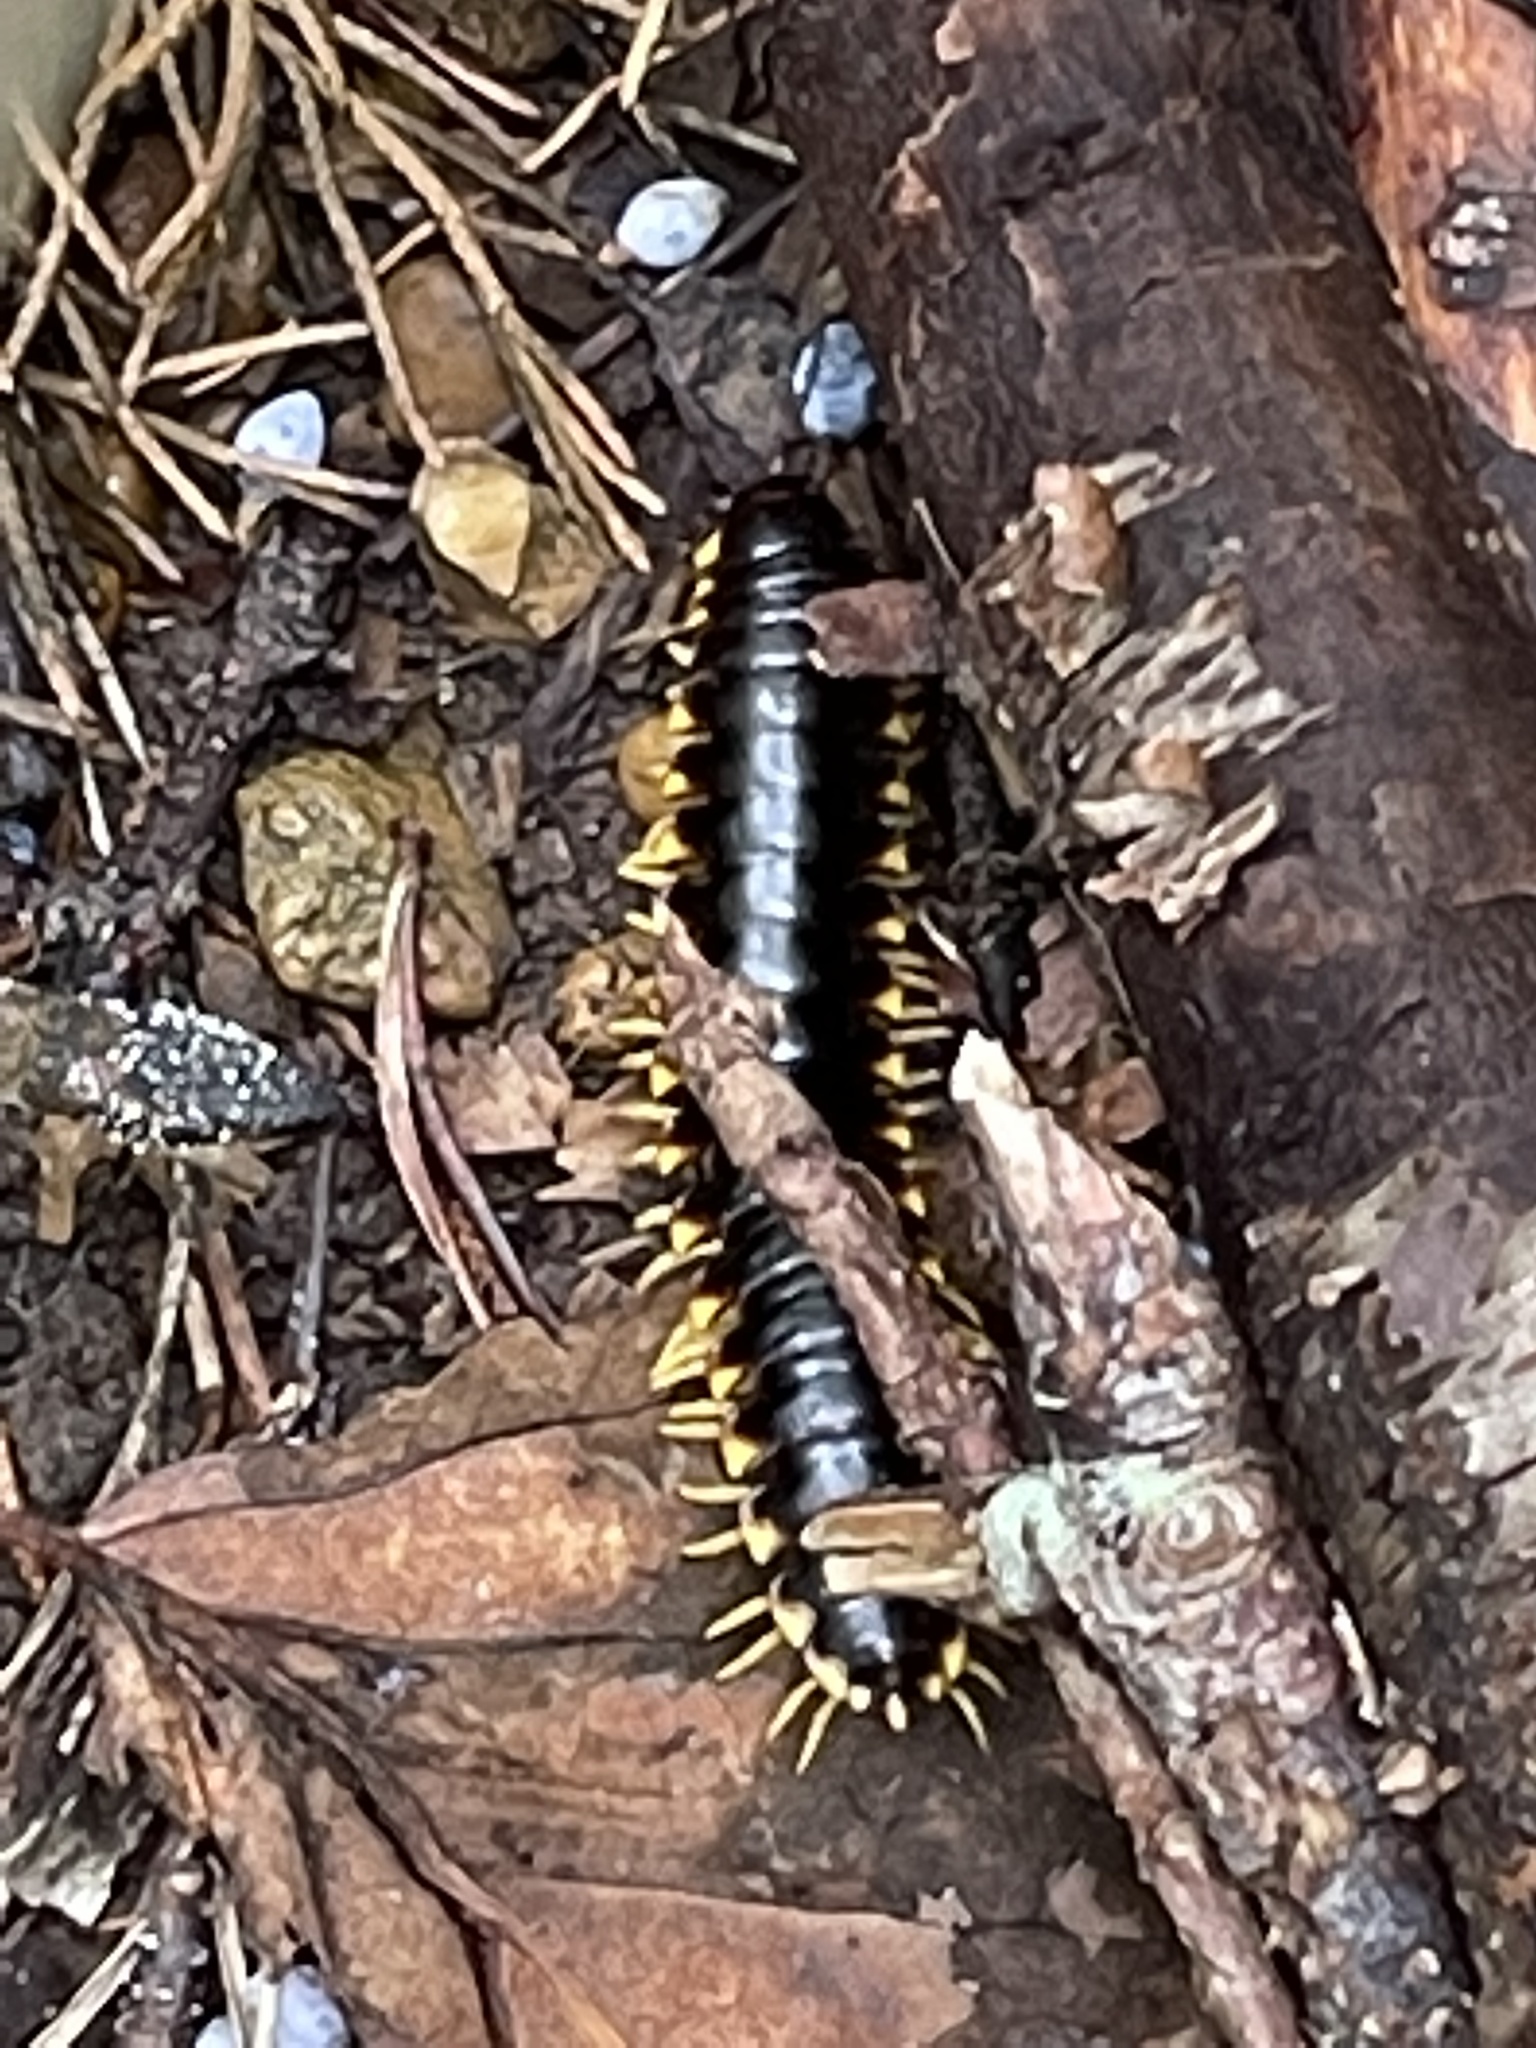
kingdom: Animalia
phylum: Arthropoda
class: Diplopoda
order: Polydesmida
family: Xystodesmidae
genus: Apheloria
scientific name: Apheloria tigana
